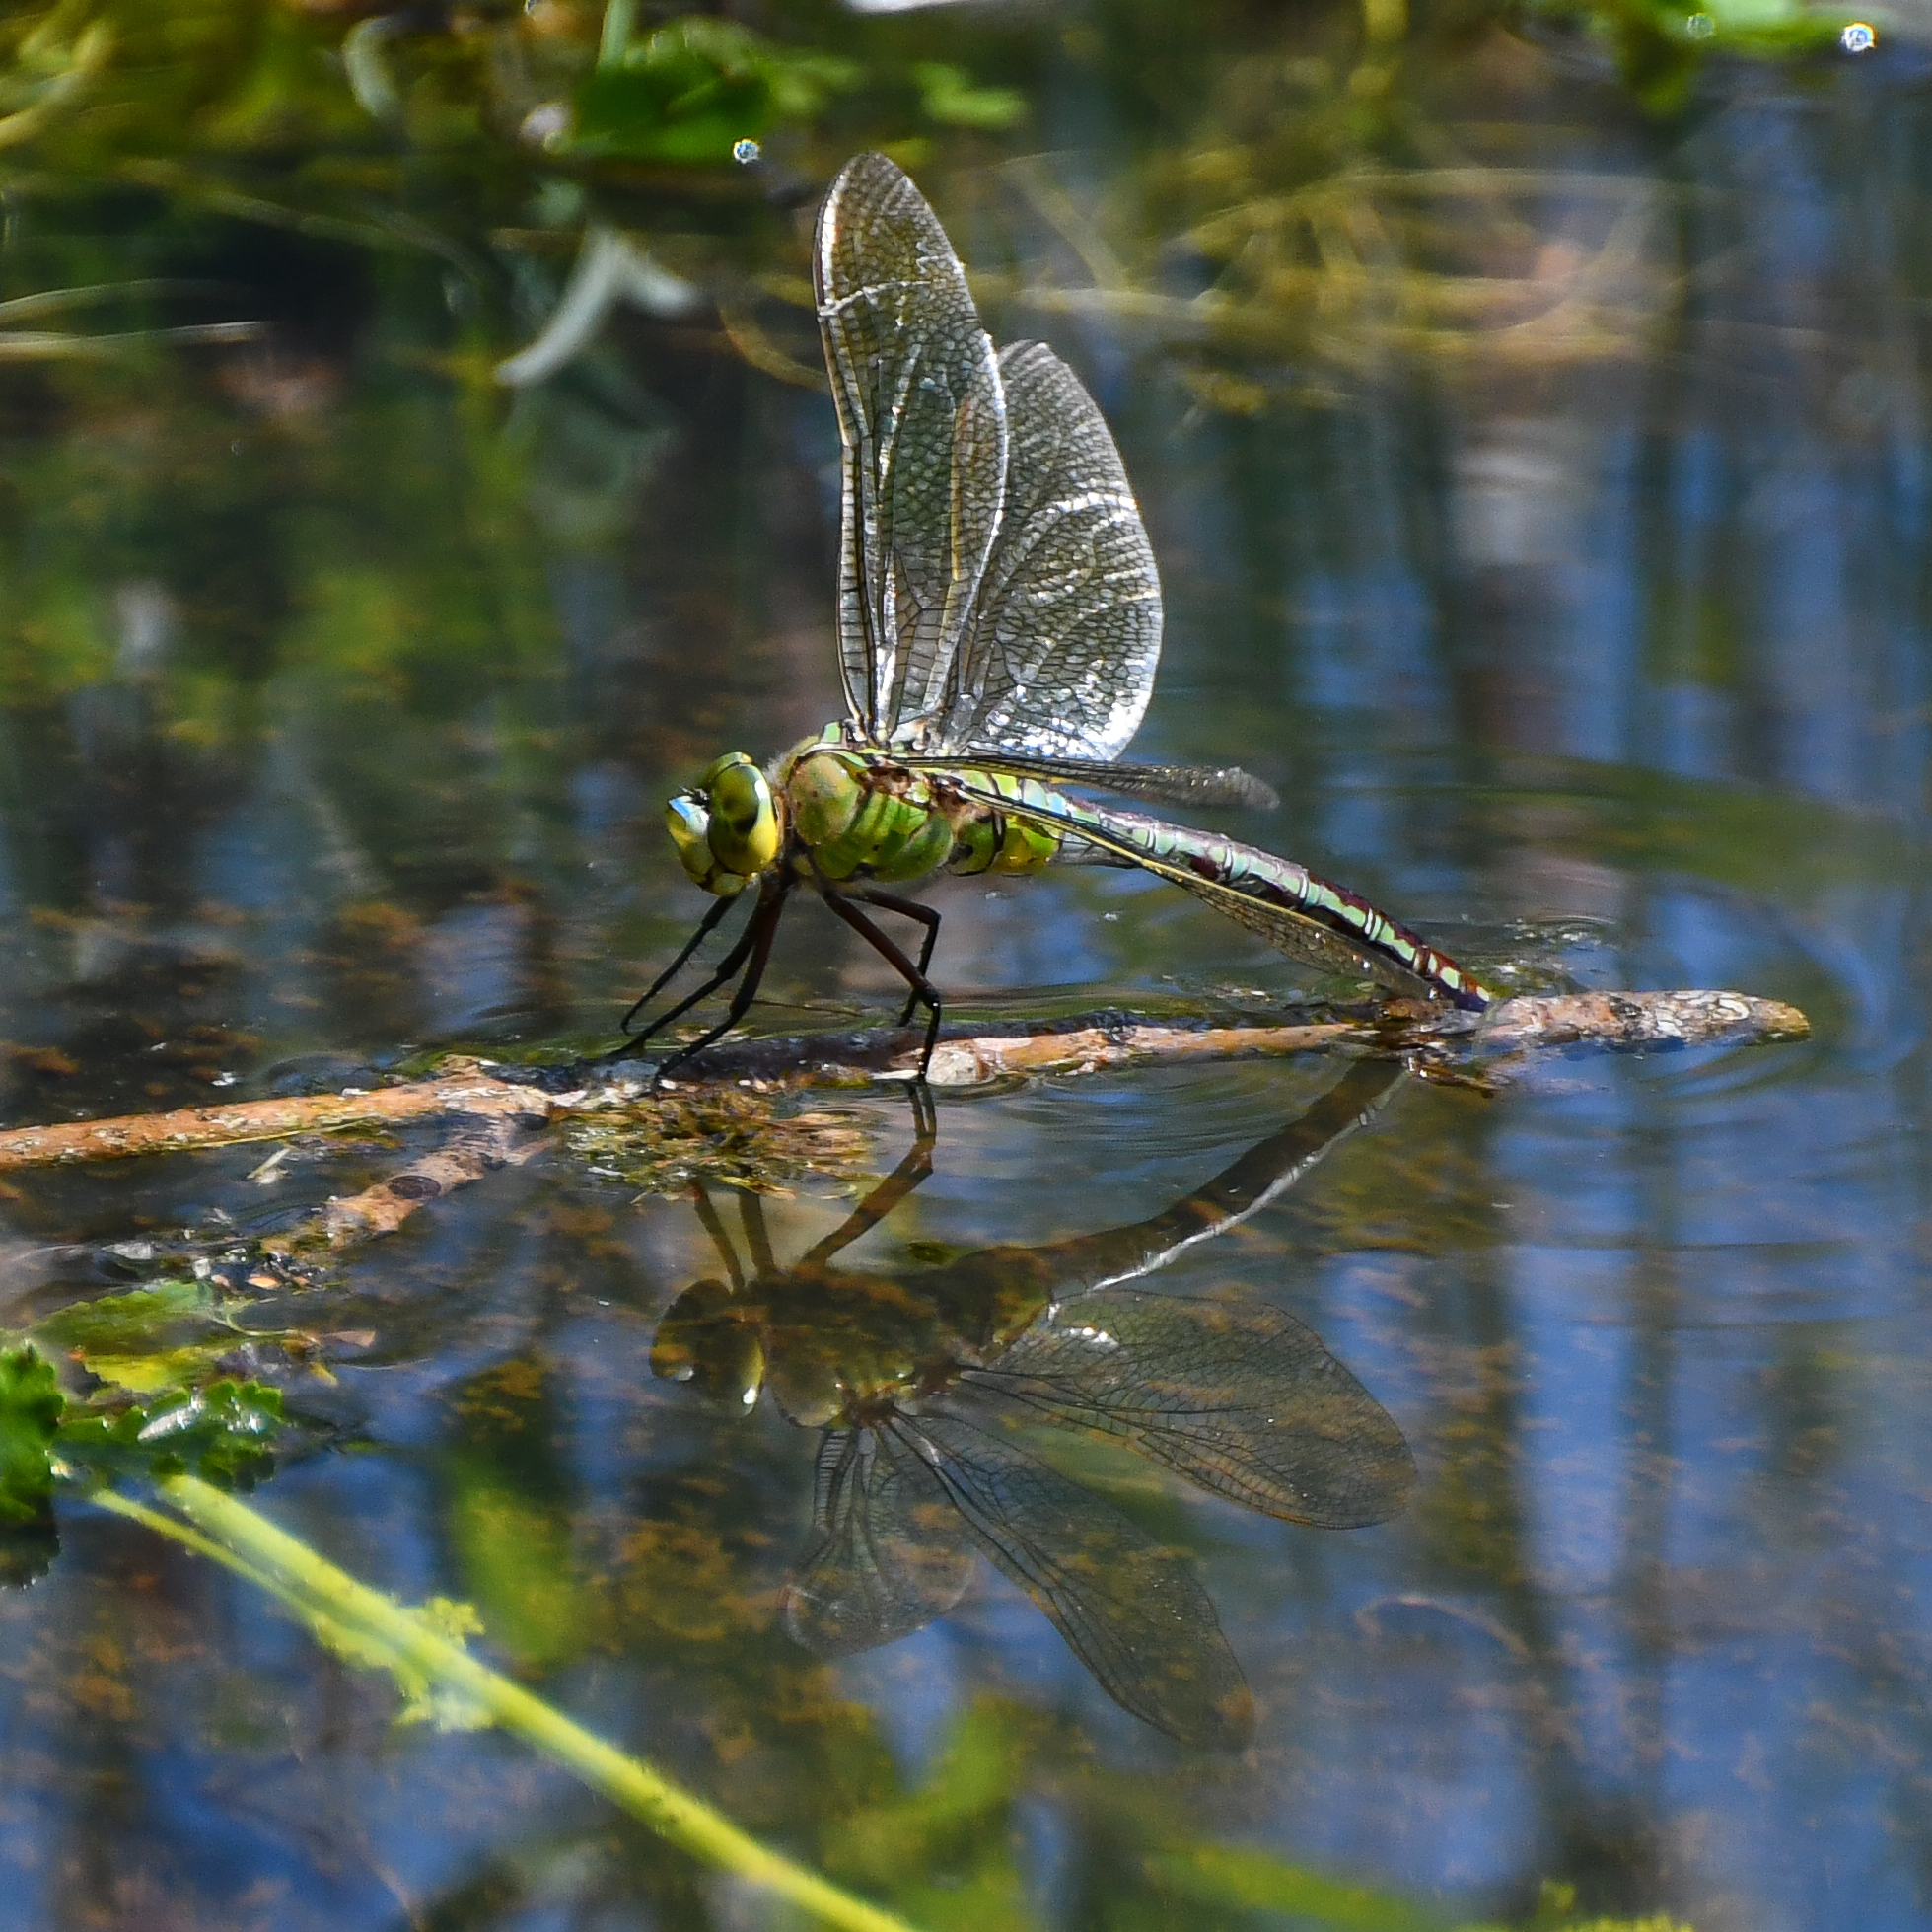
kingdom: Animalia
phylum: Arthropoda
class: Insecta
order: Odonata
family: Aeshnidae
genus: Anax
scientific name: Anax imperator
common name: Emperor dragonfly
